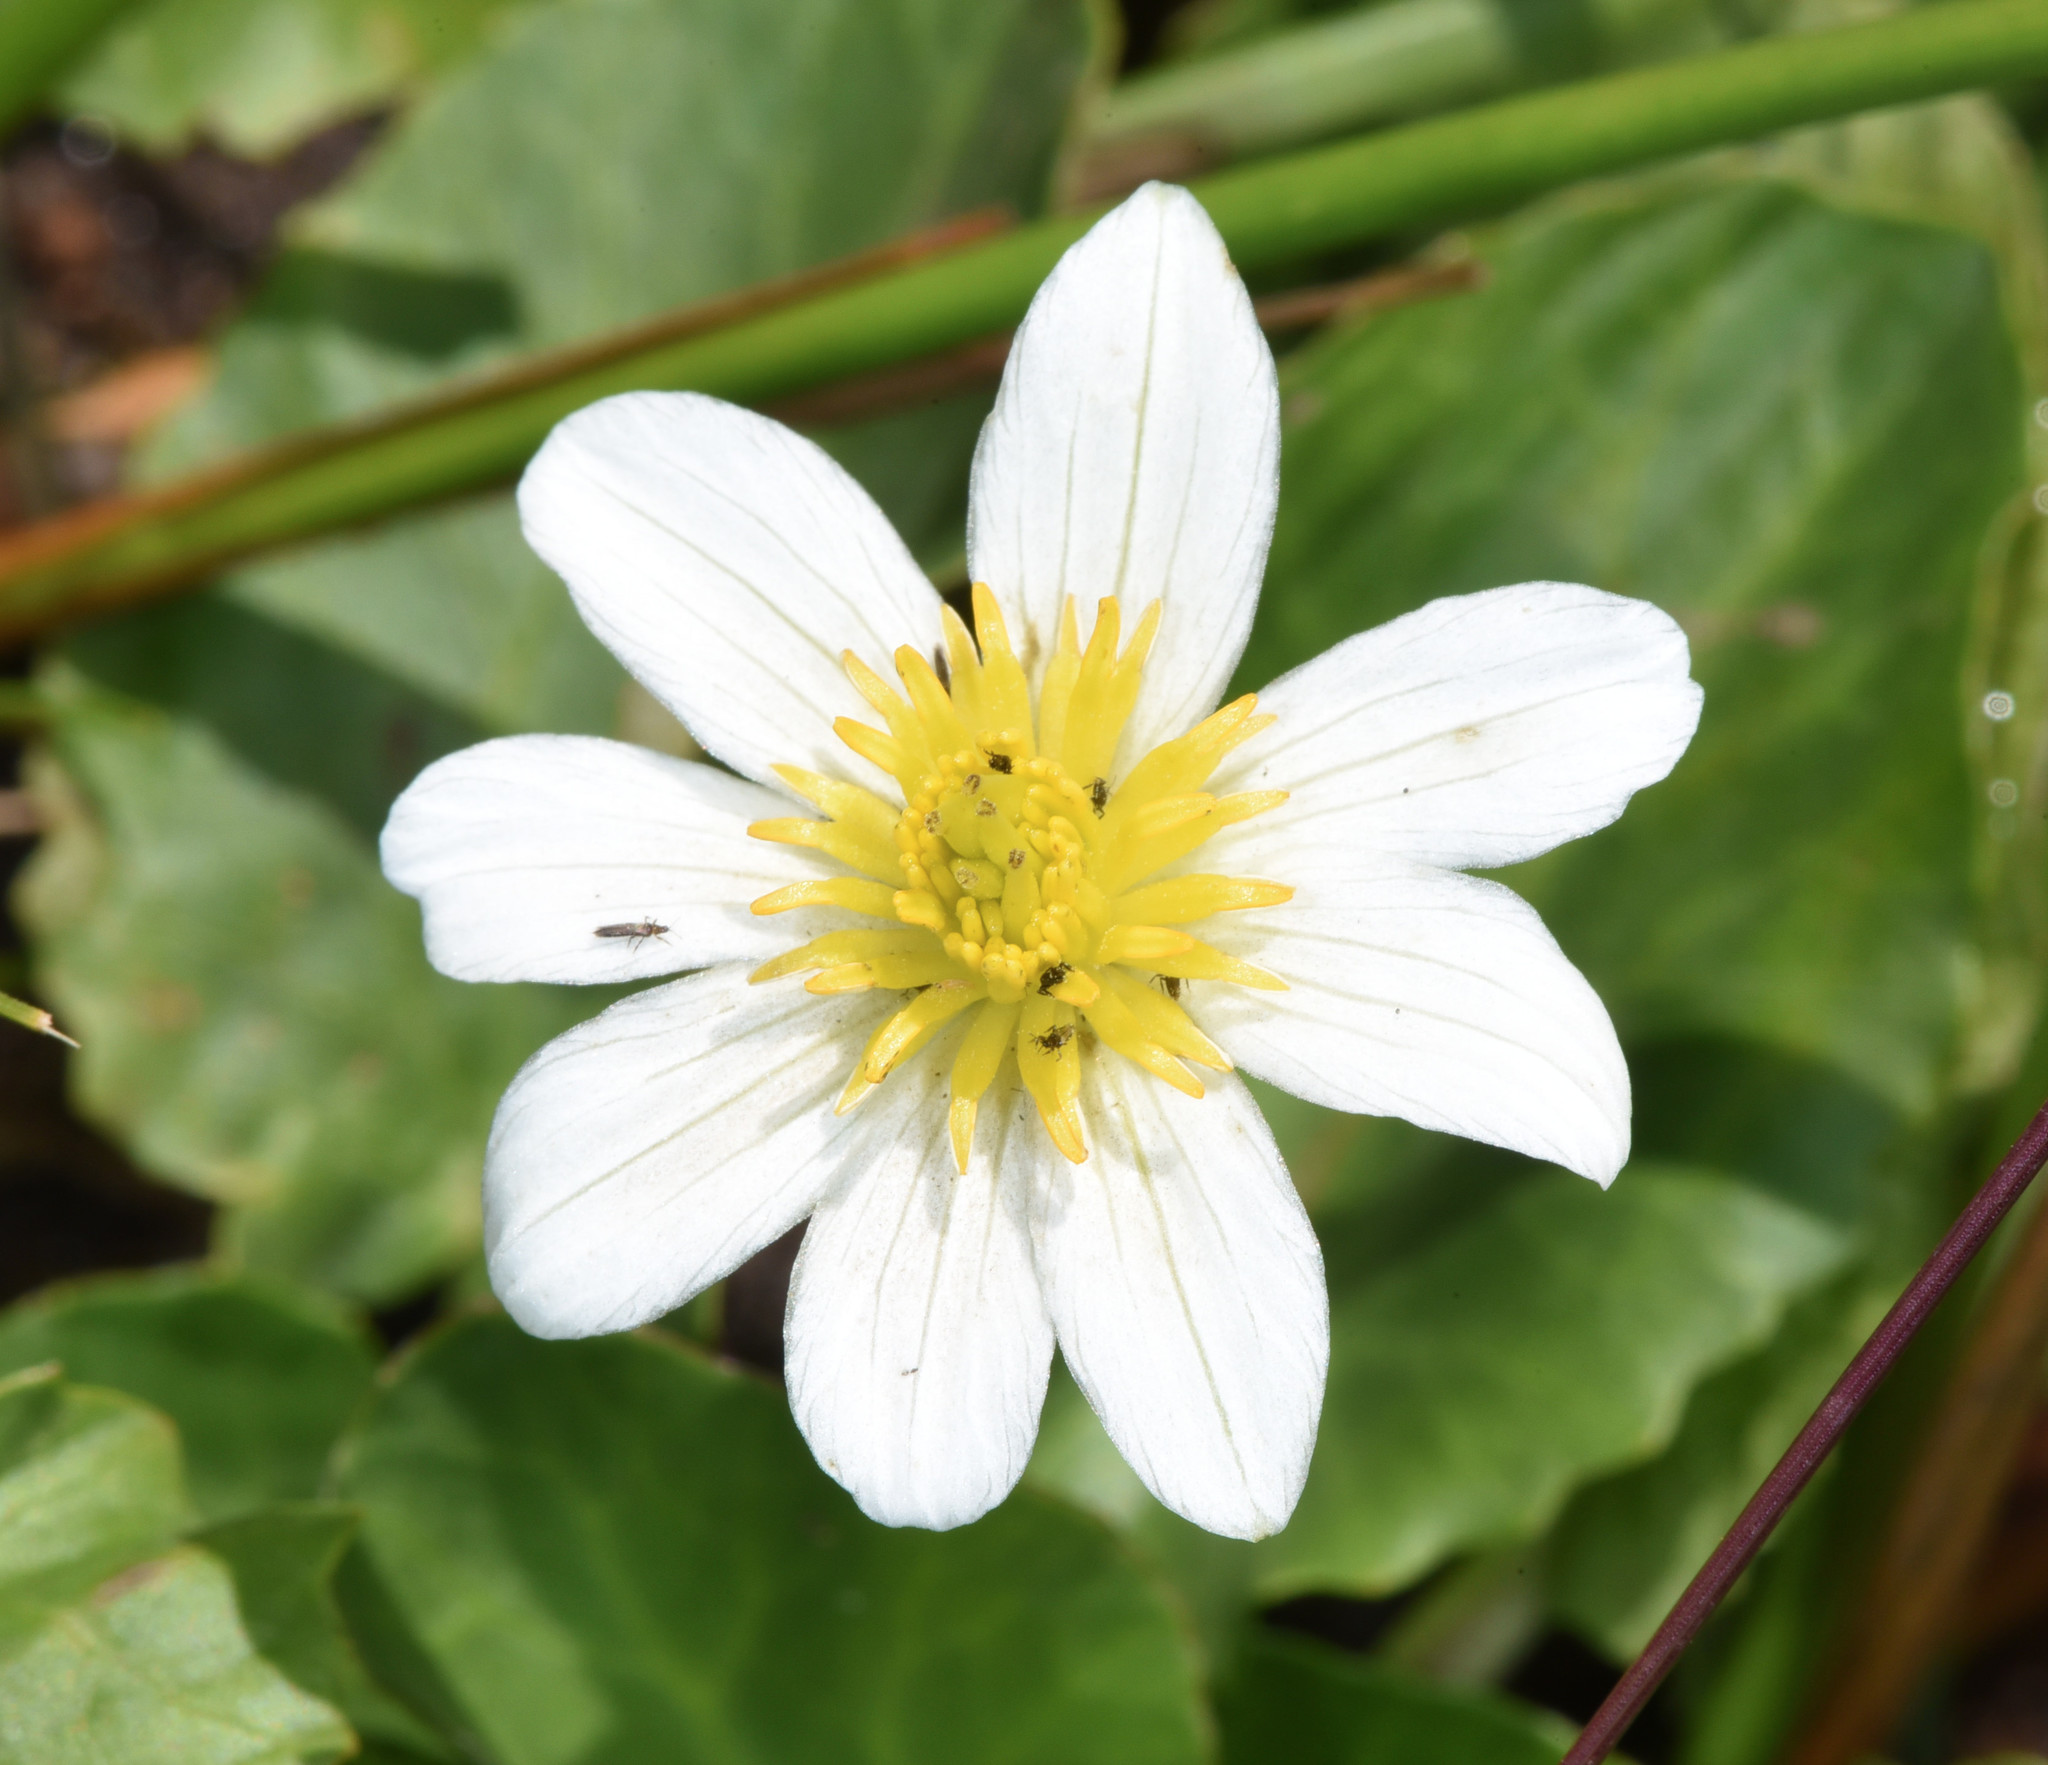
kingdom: Plantae
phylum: Tracheophyta
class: Magnoliopsida
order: Ranunculales
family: Ranunculaceae
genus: Caltha
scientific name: Caltha leptosepala
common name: Elkslip
